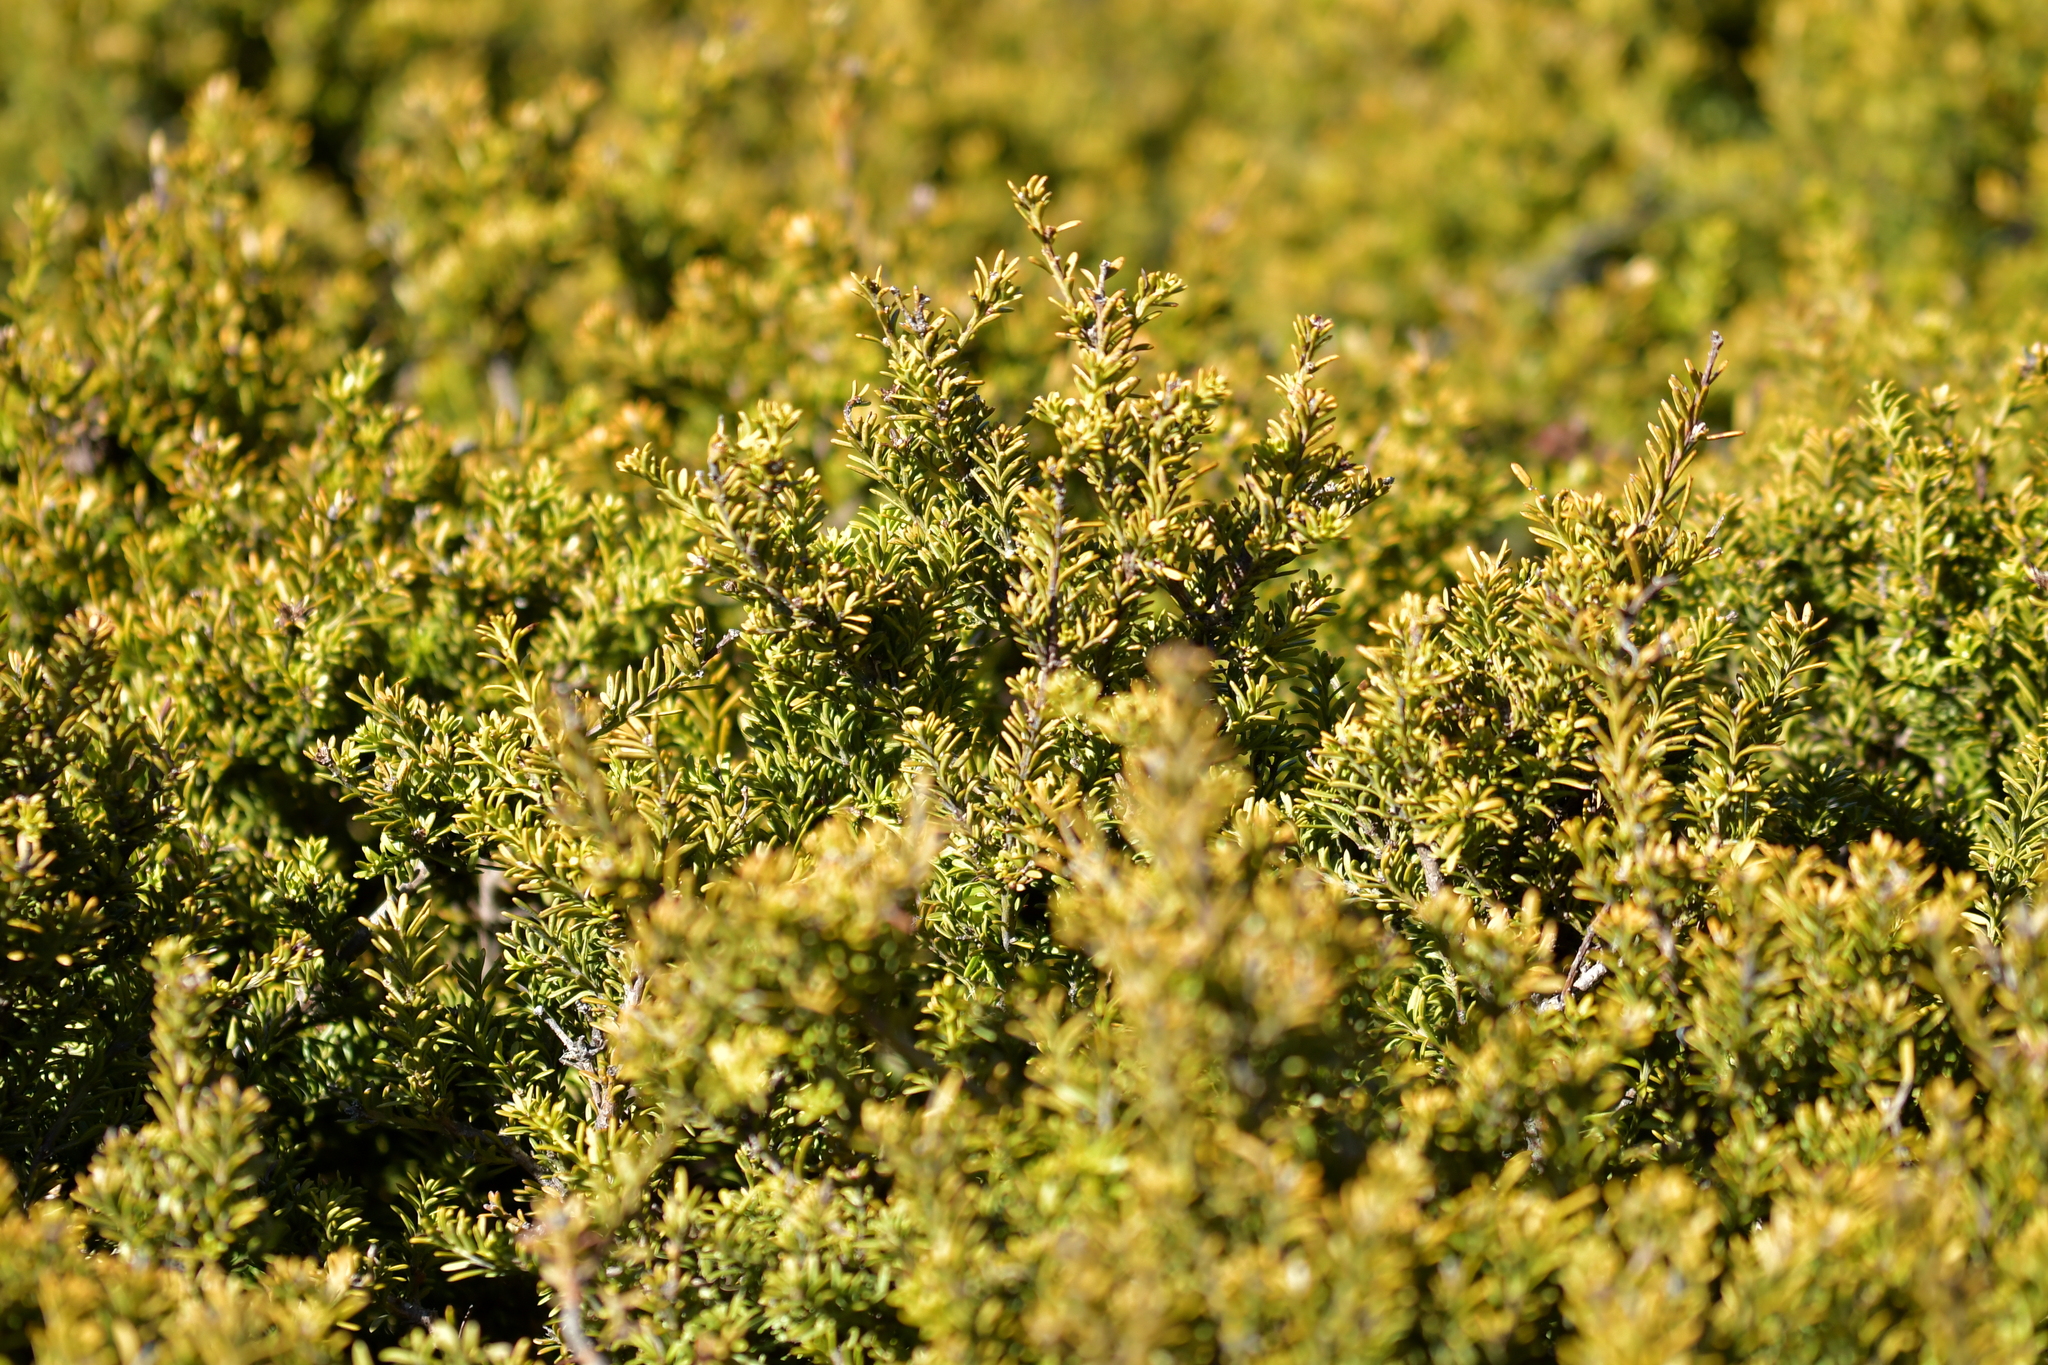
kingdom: Plantae
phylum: Tracheophyta
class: Pinopsida
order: Pinales
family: Podocarpaceae
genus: Podocarpus
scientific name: Podocarpus nivalis
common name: Alpine totara
